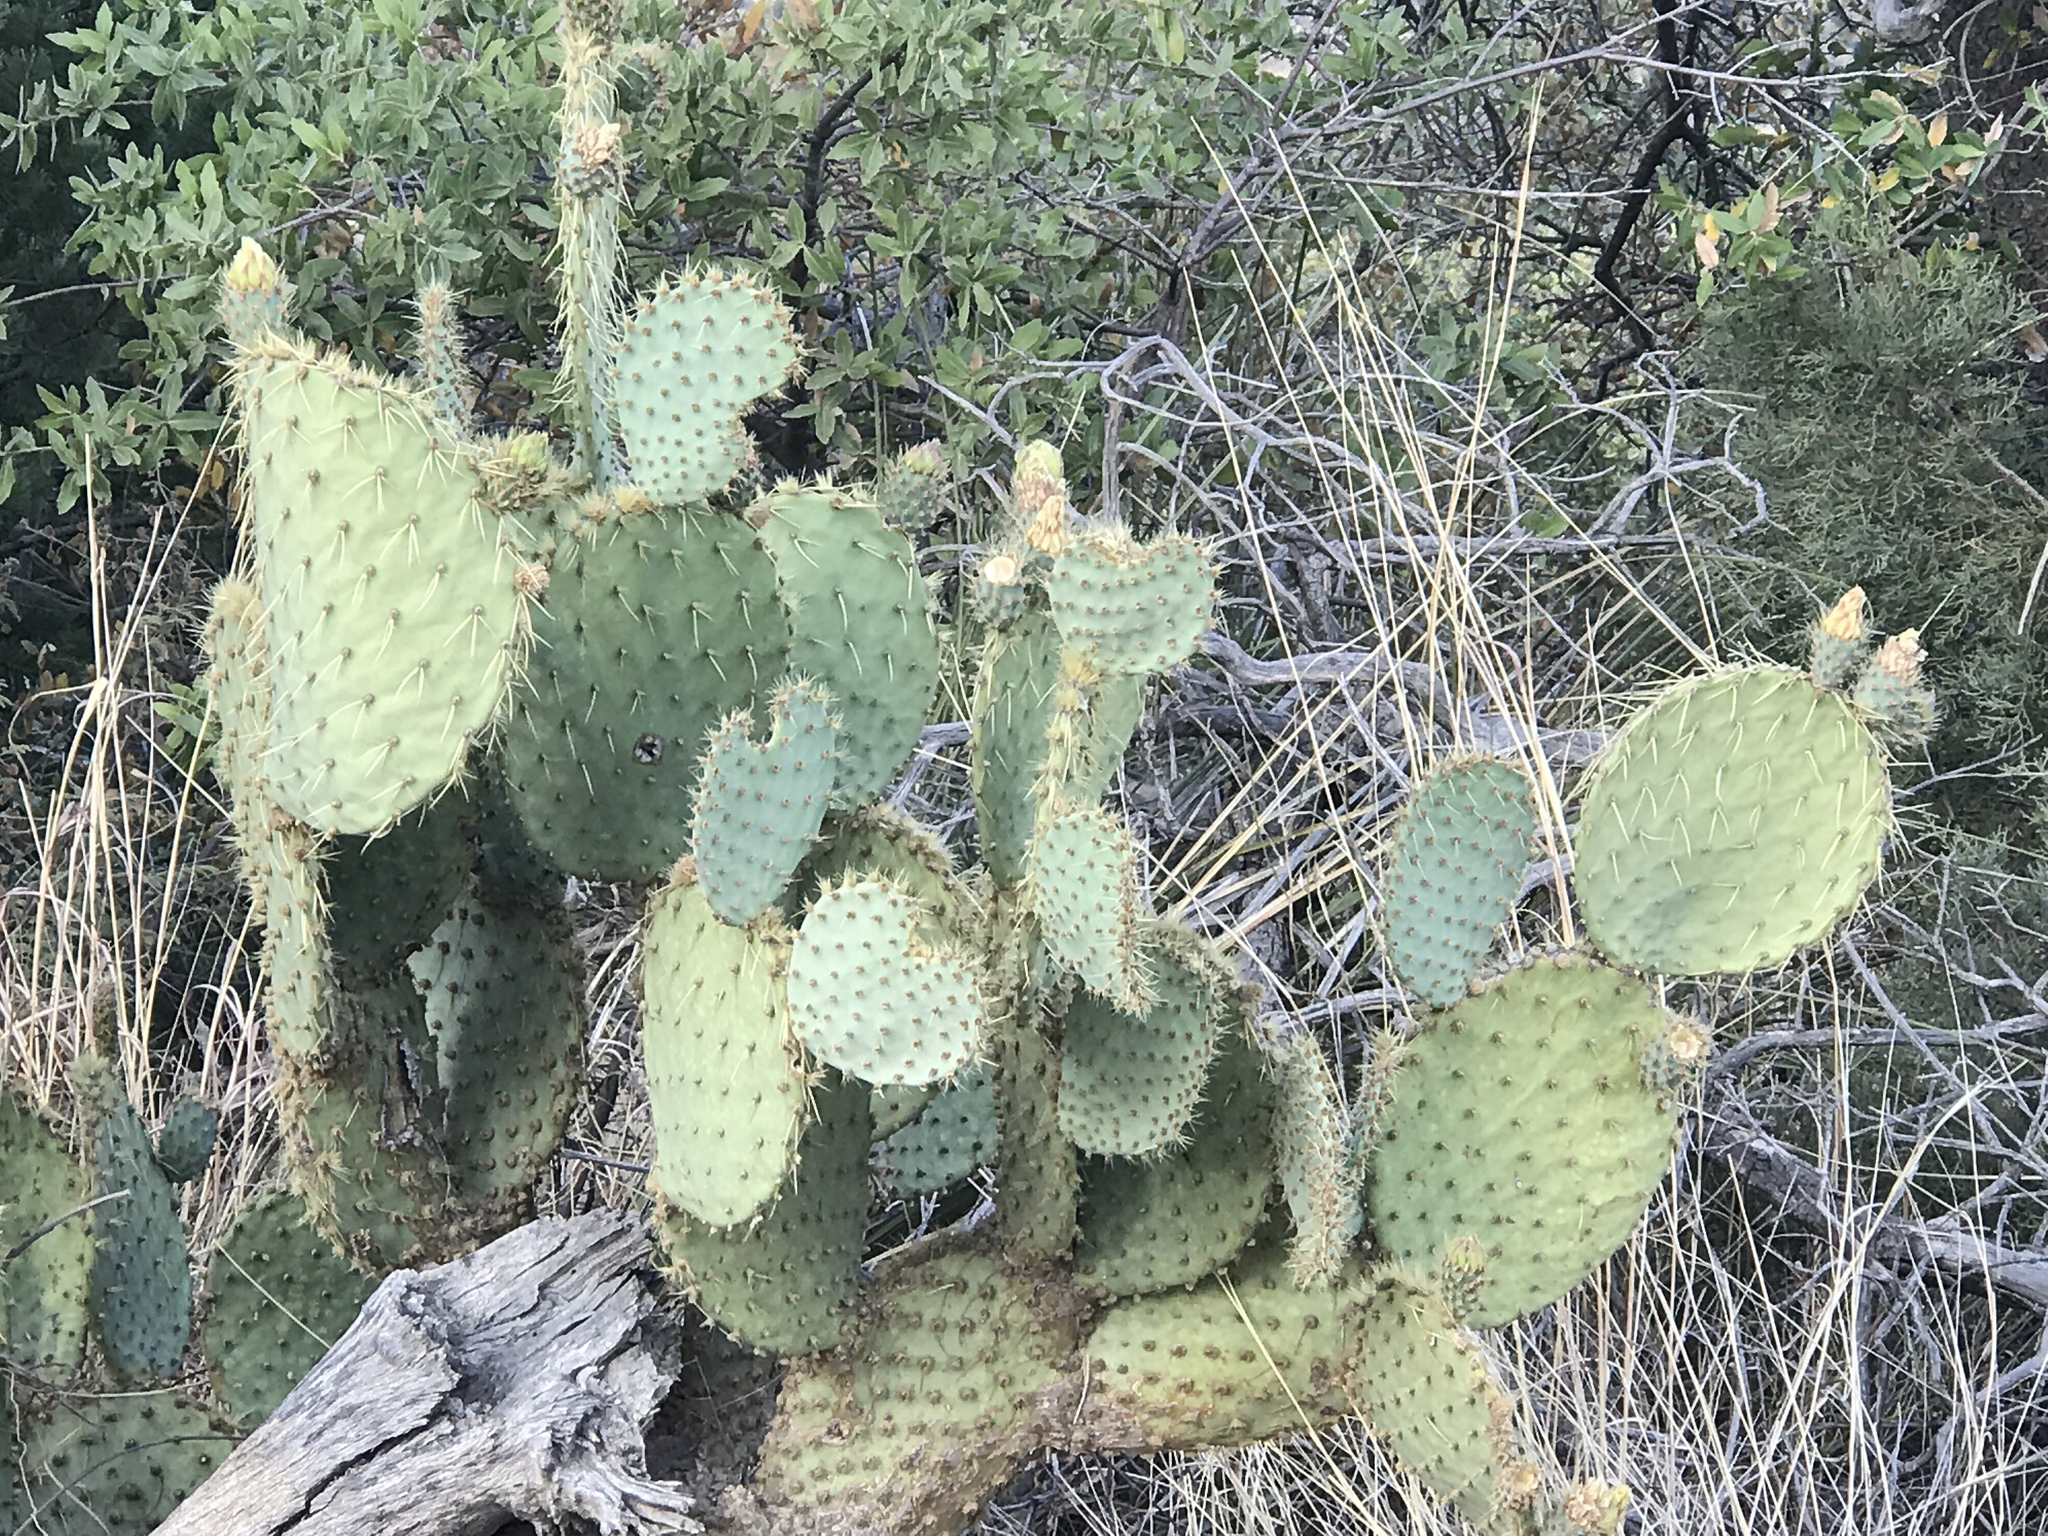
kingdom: Plantae
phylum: Tracheophyta
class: Magnoliopsida
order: Caryophyllales
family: Cactaceae
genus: Opuntia
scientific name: Opuntia chlorotica
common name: Dollar-joint prickly-pear
